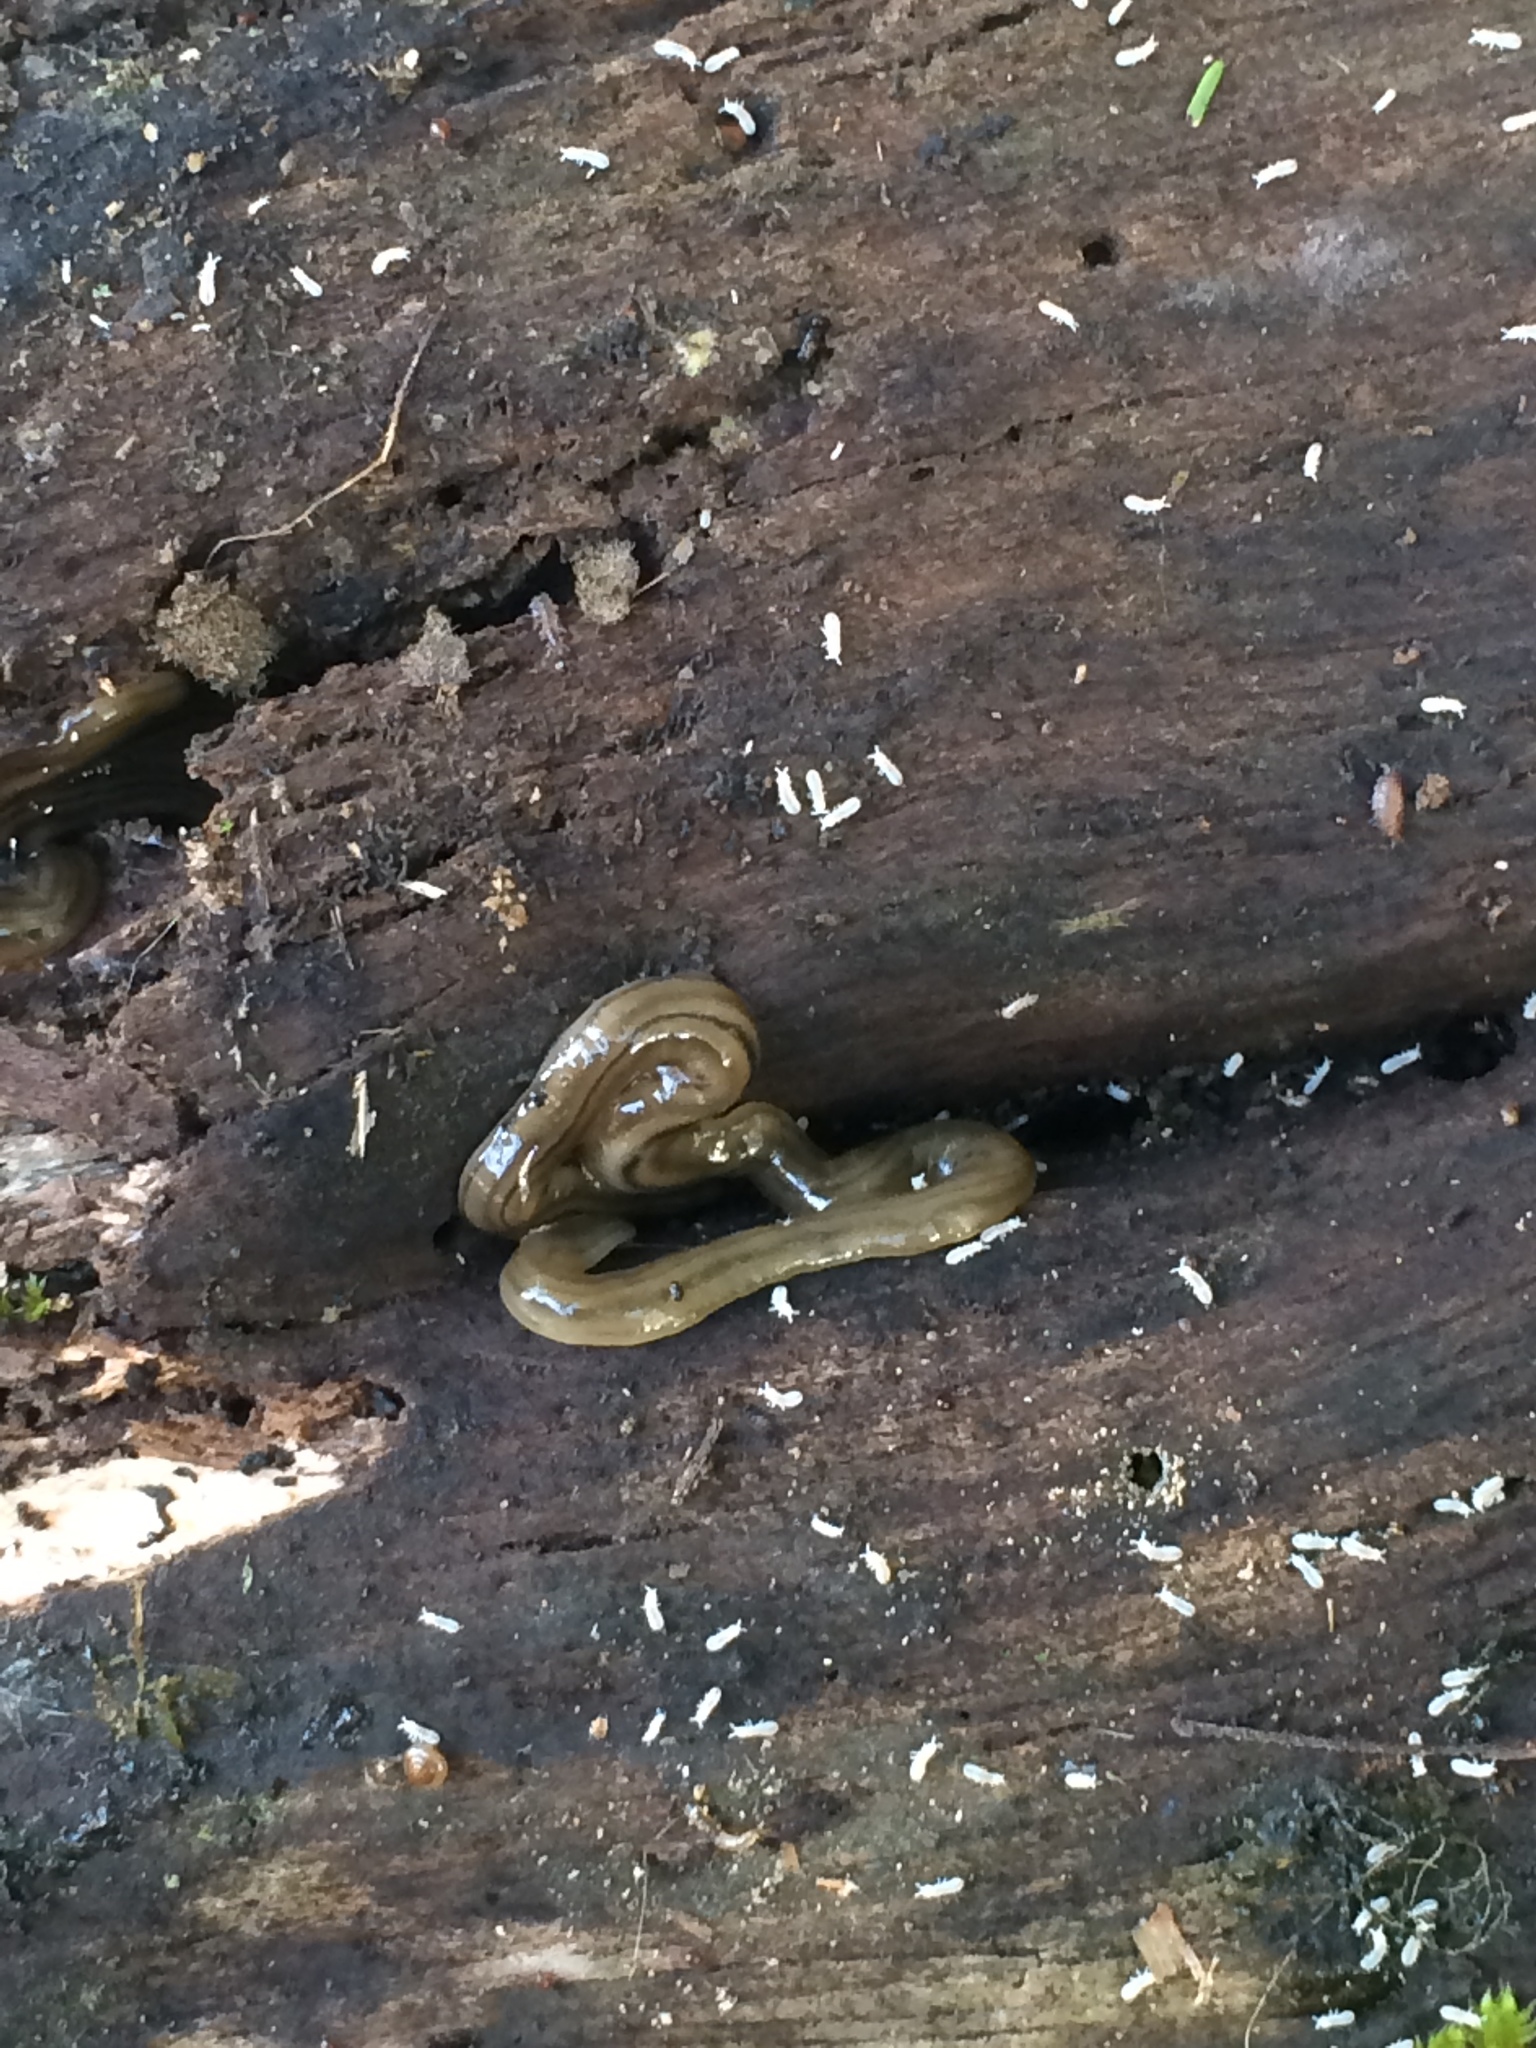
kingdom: Animalia
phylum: Platyhelminthes
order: Tricladida
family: Geoplanidae
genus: Bipalium
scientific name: Bipalium kewense
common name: Hammerhead flatworm
